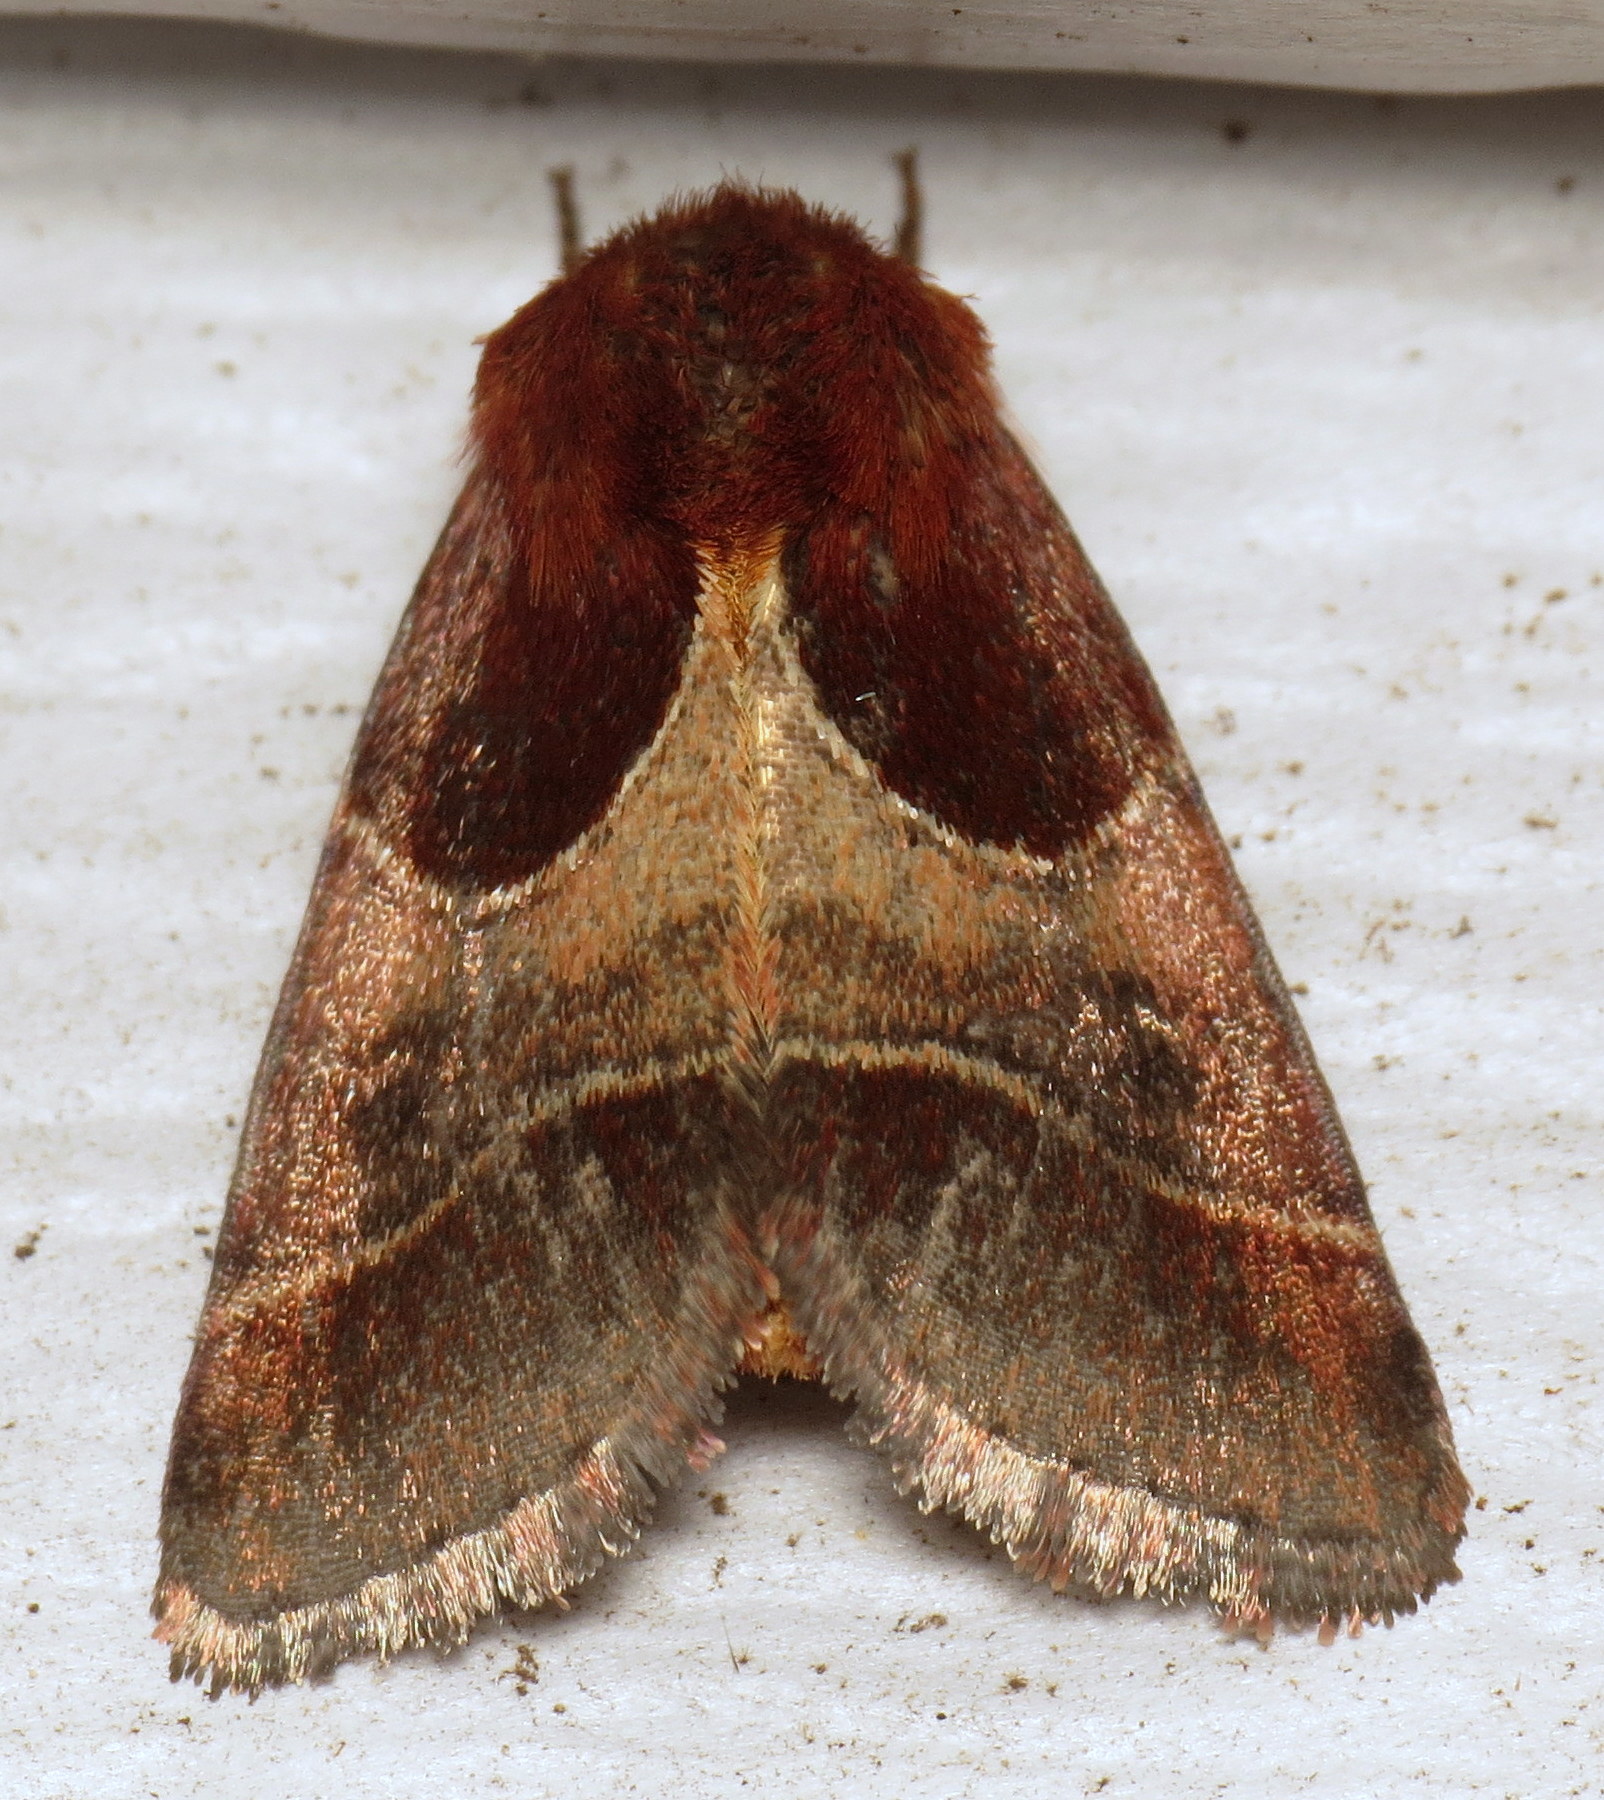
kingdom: Animalia
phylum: Arthropoda
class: Insecta
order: Lepidoptera
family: Noctuidae
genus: Schinia
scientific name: Schinia arcigera
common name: Arcigera flower moth
